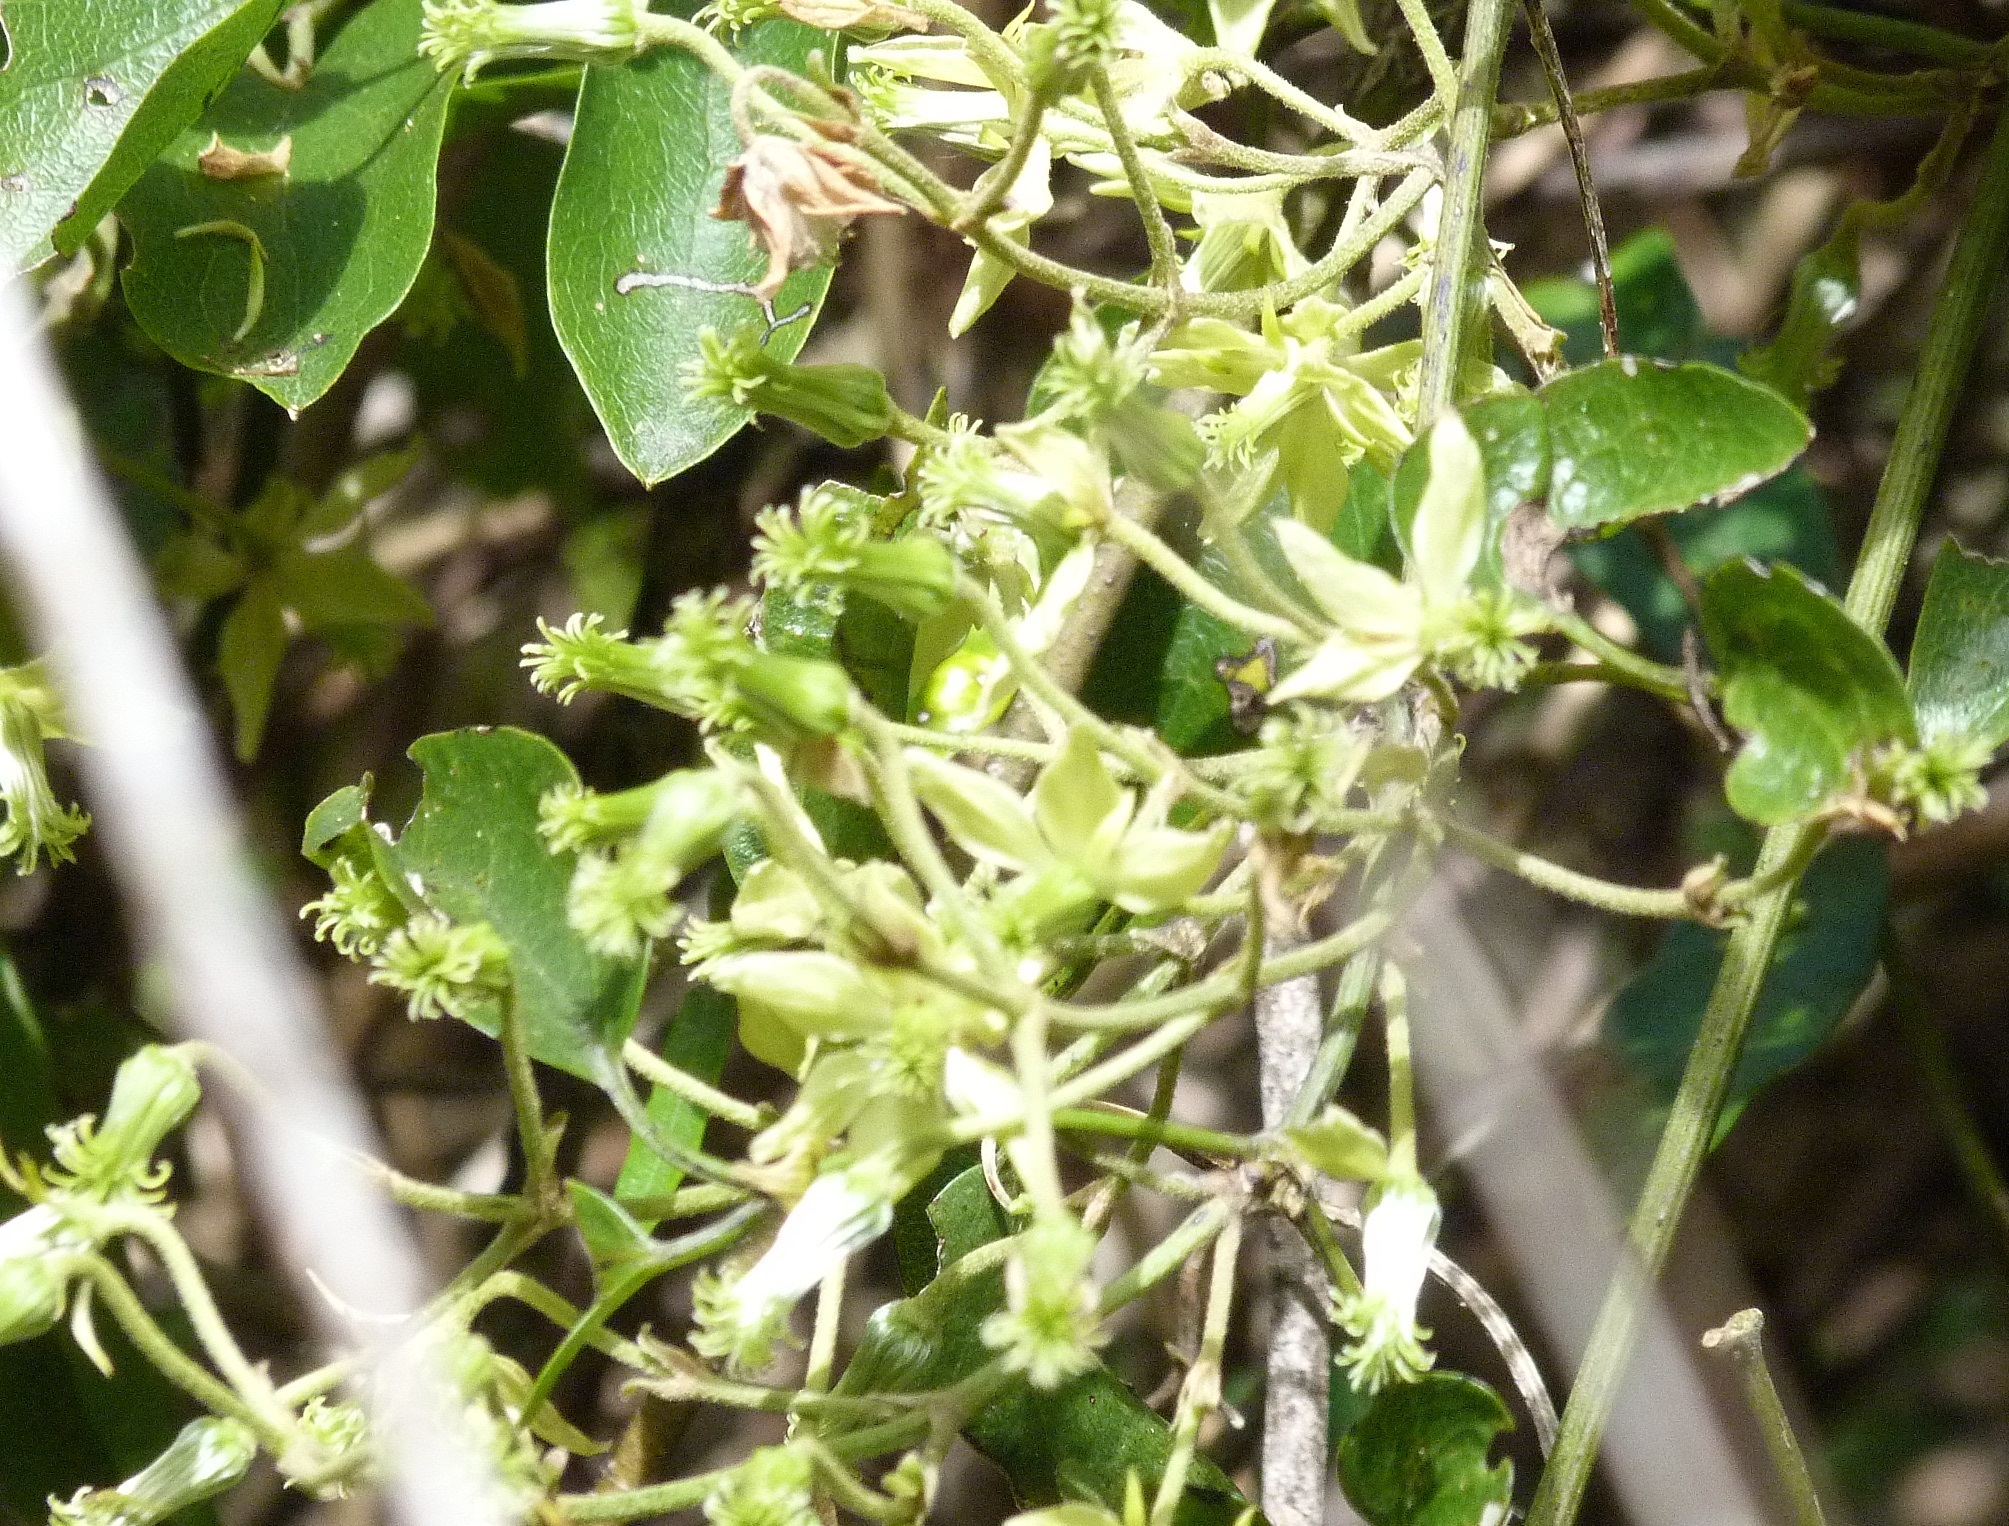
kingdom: Plantae
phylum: Tracheophyta
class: Magnoliopsida
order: Ranunculales
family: Ranunculaceae
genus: Clematis
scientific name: Clematis foetida
